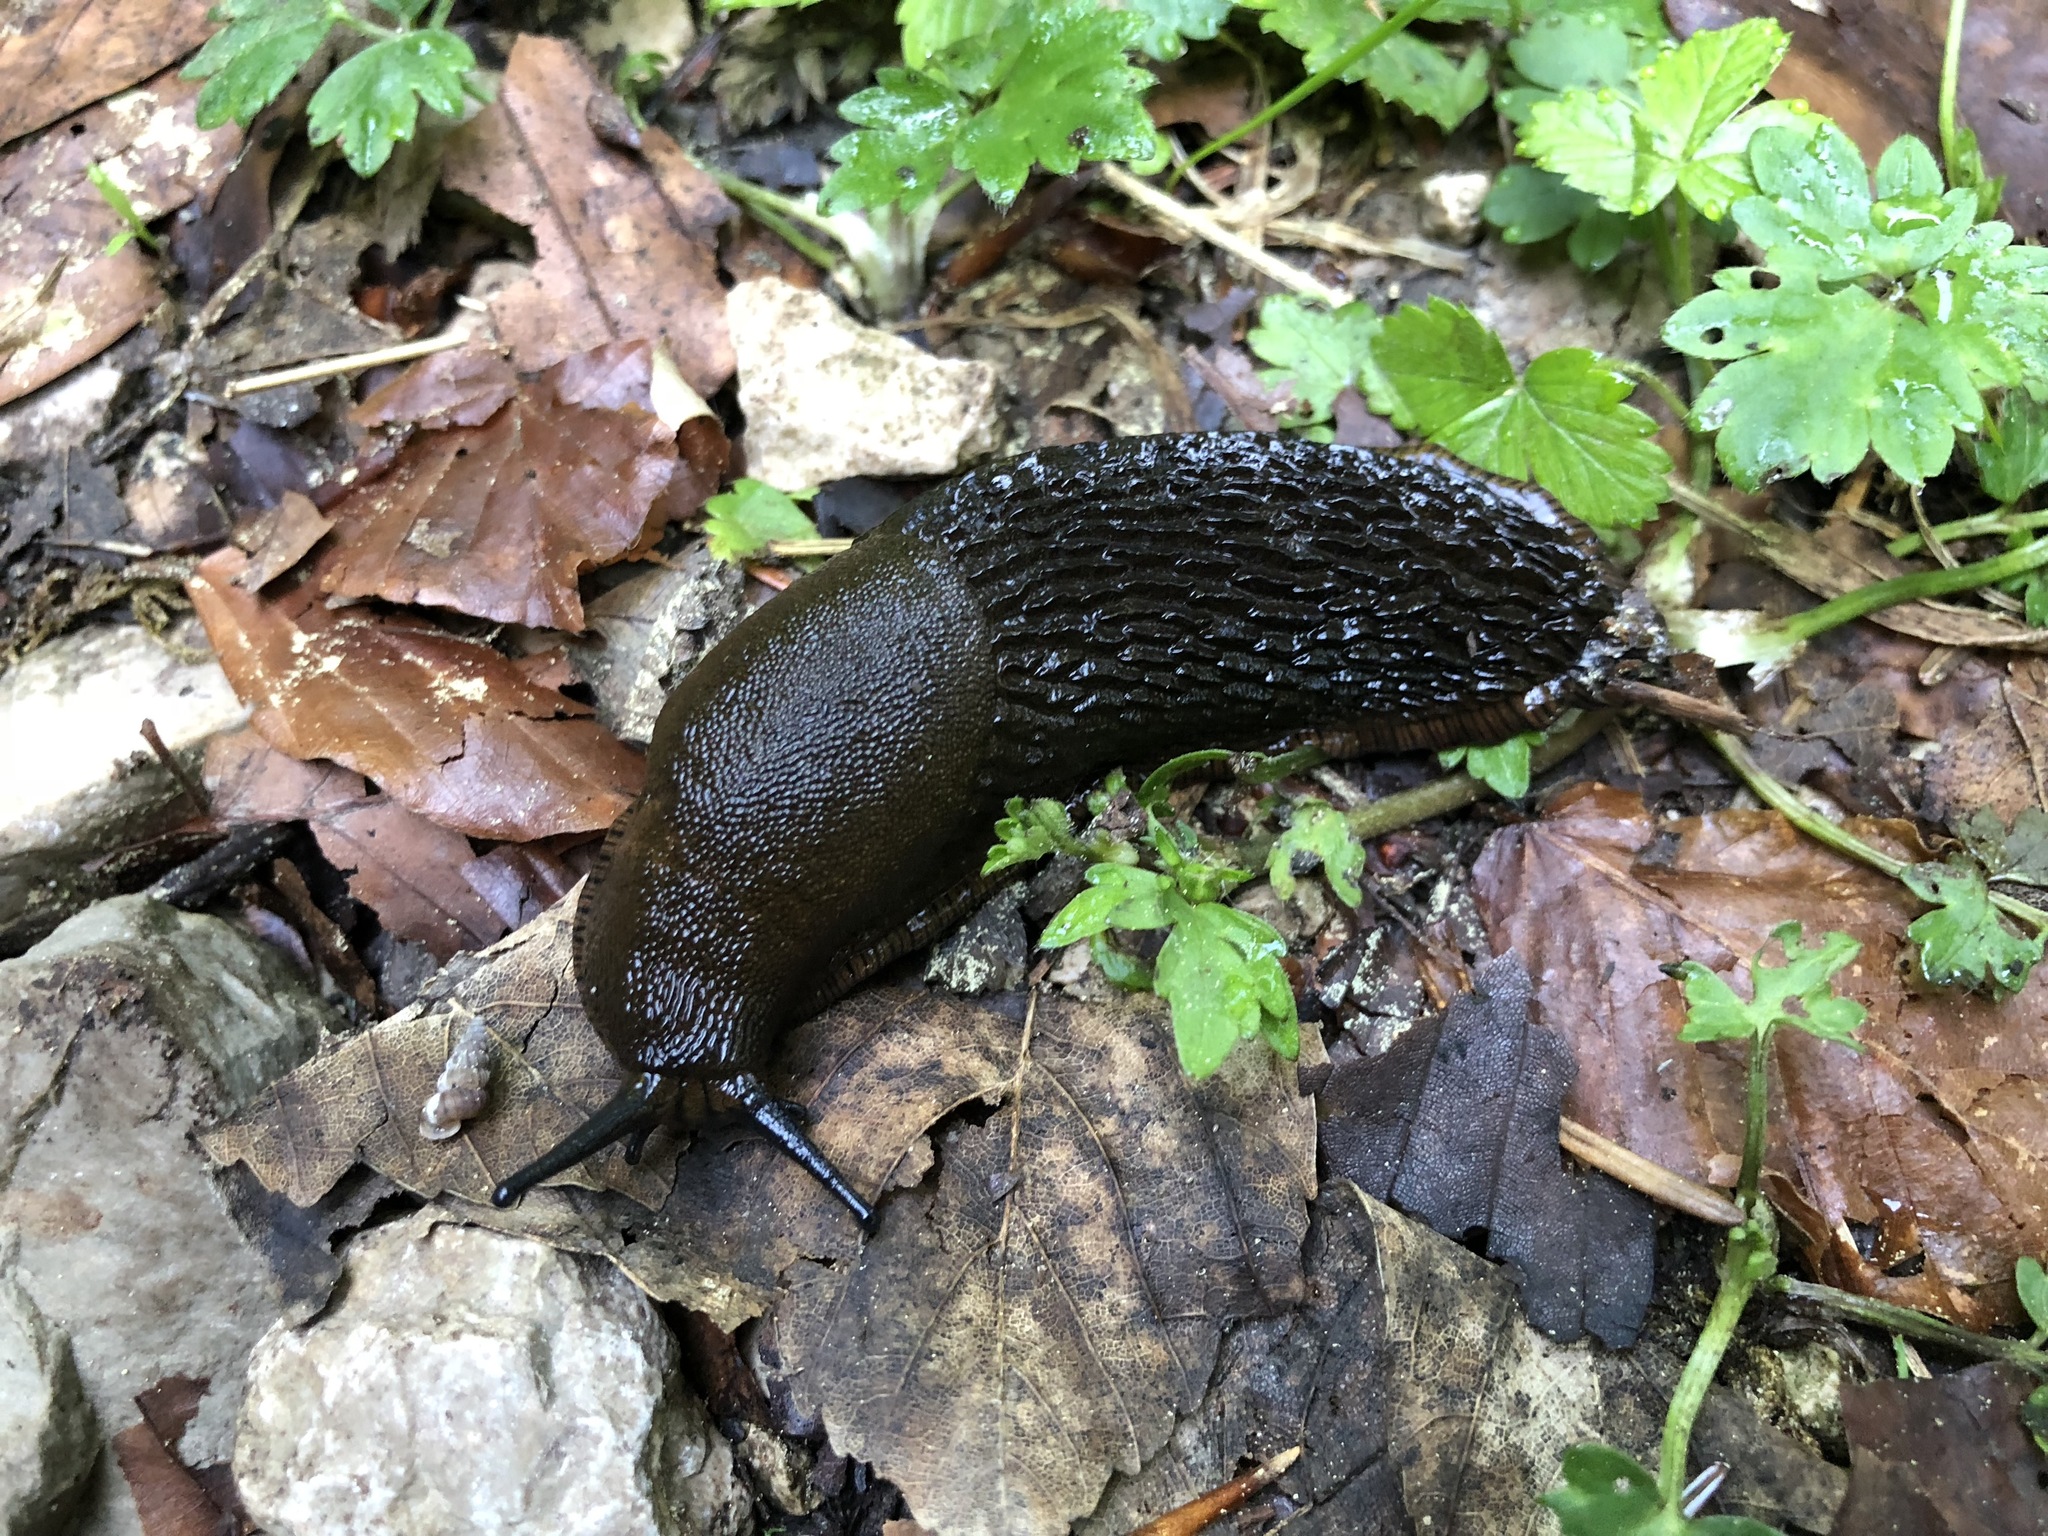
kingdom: Animalia
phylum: Mollusca
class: Gastropoda
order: Stylommatophora
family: Arionidae
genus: Arion
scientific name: Arion ater
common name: Black arion
